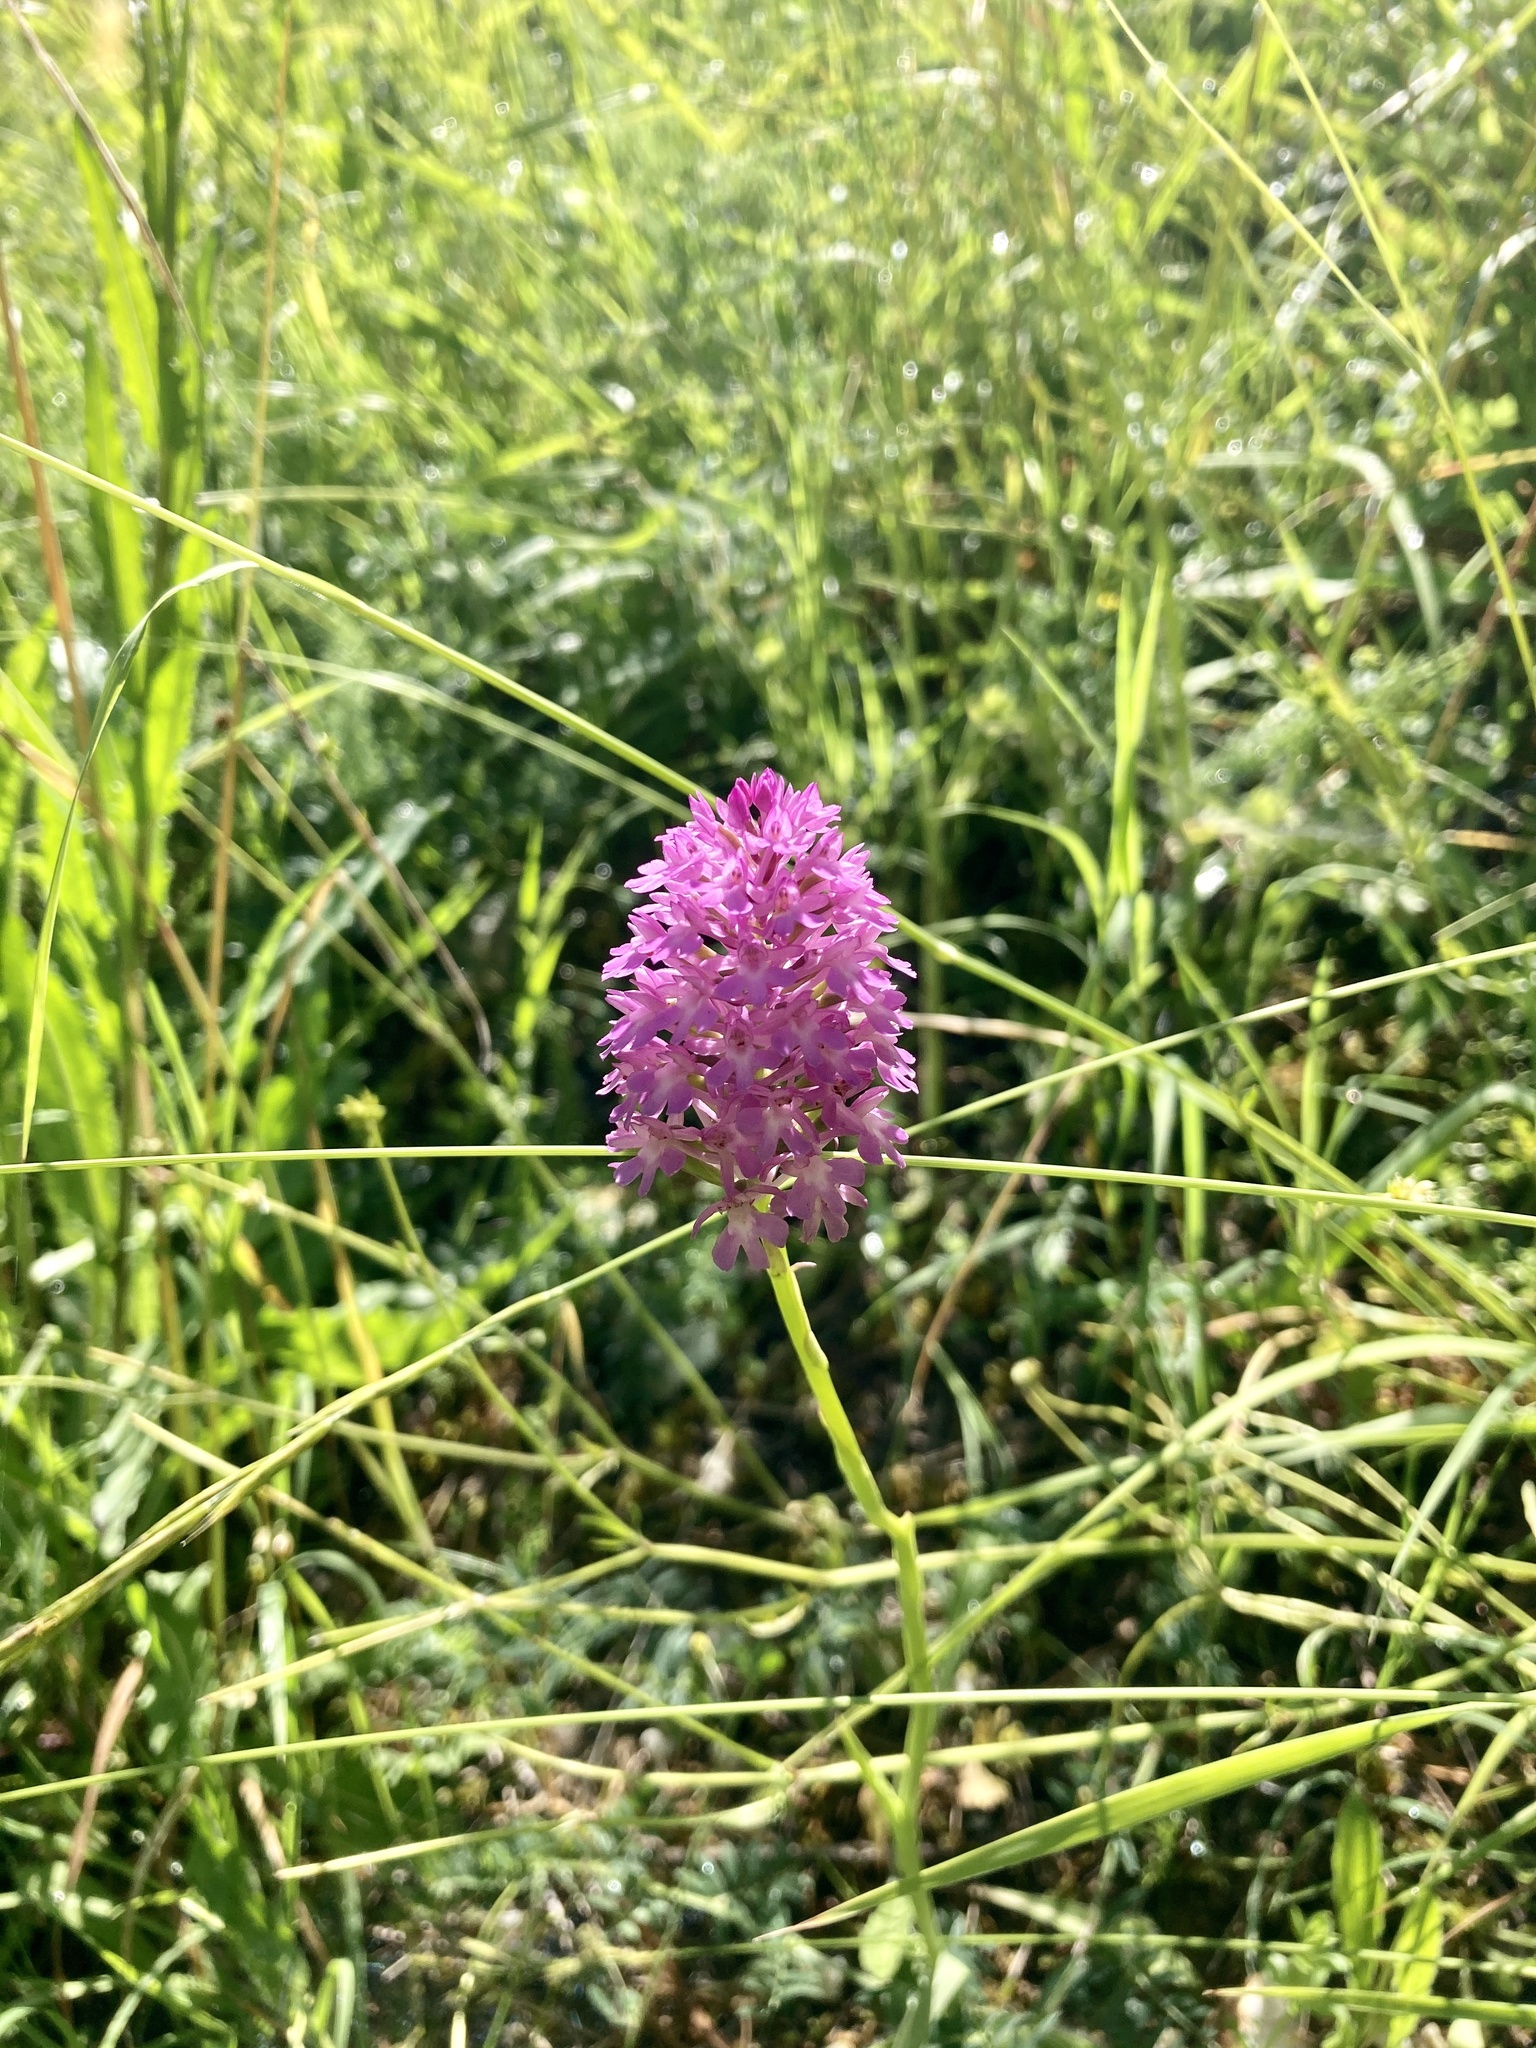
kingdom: Plantae
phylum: Tracheophyta
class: Liliopsida
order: Asparagales
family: Orchidaceae
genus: Anacamptis
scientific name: Anacamptis pyramidalis
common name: Pyramidal orchid
